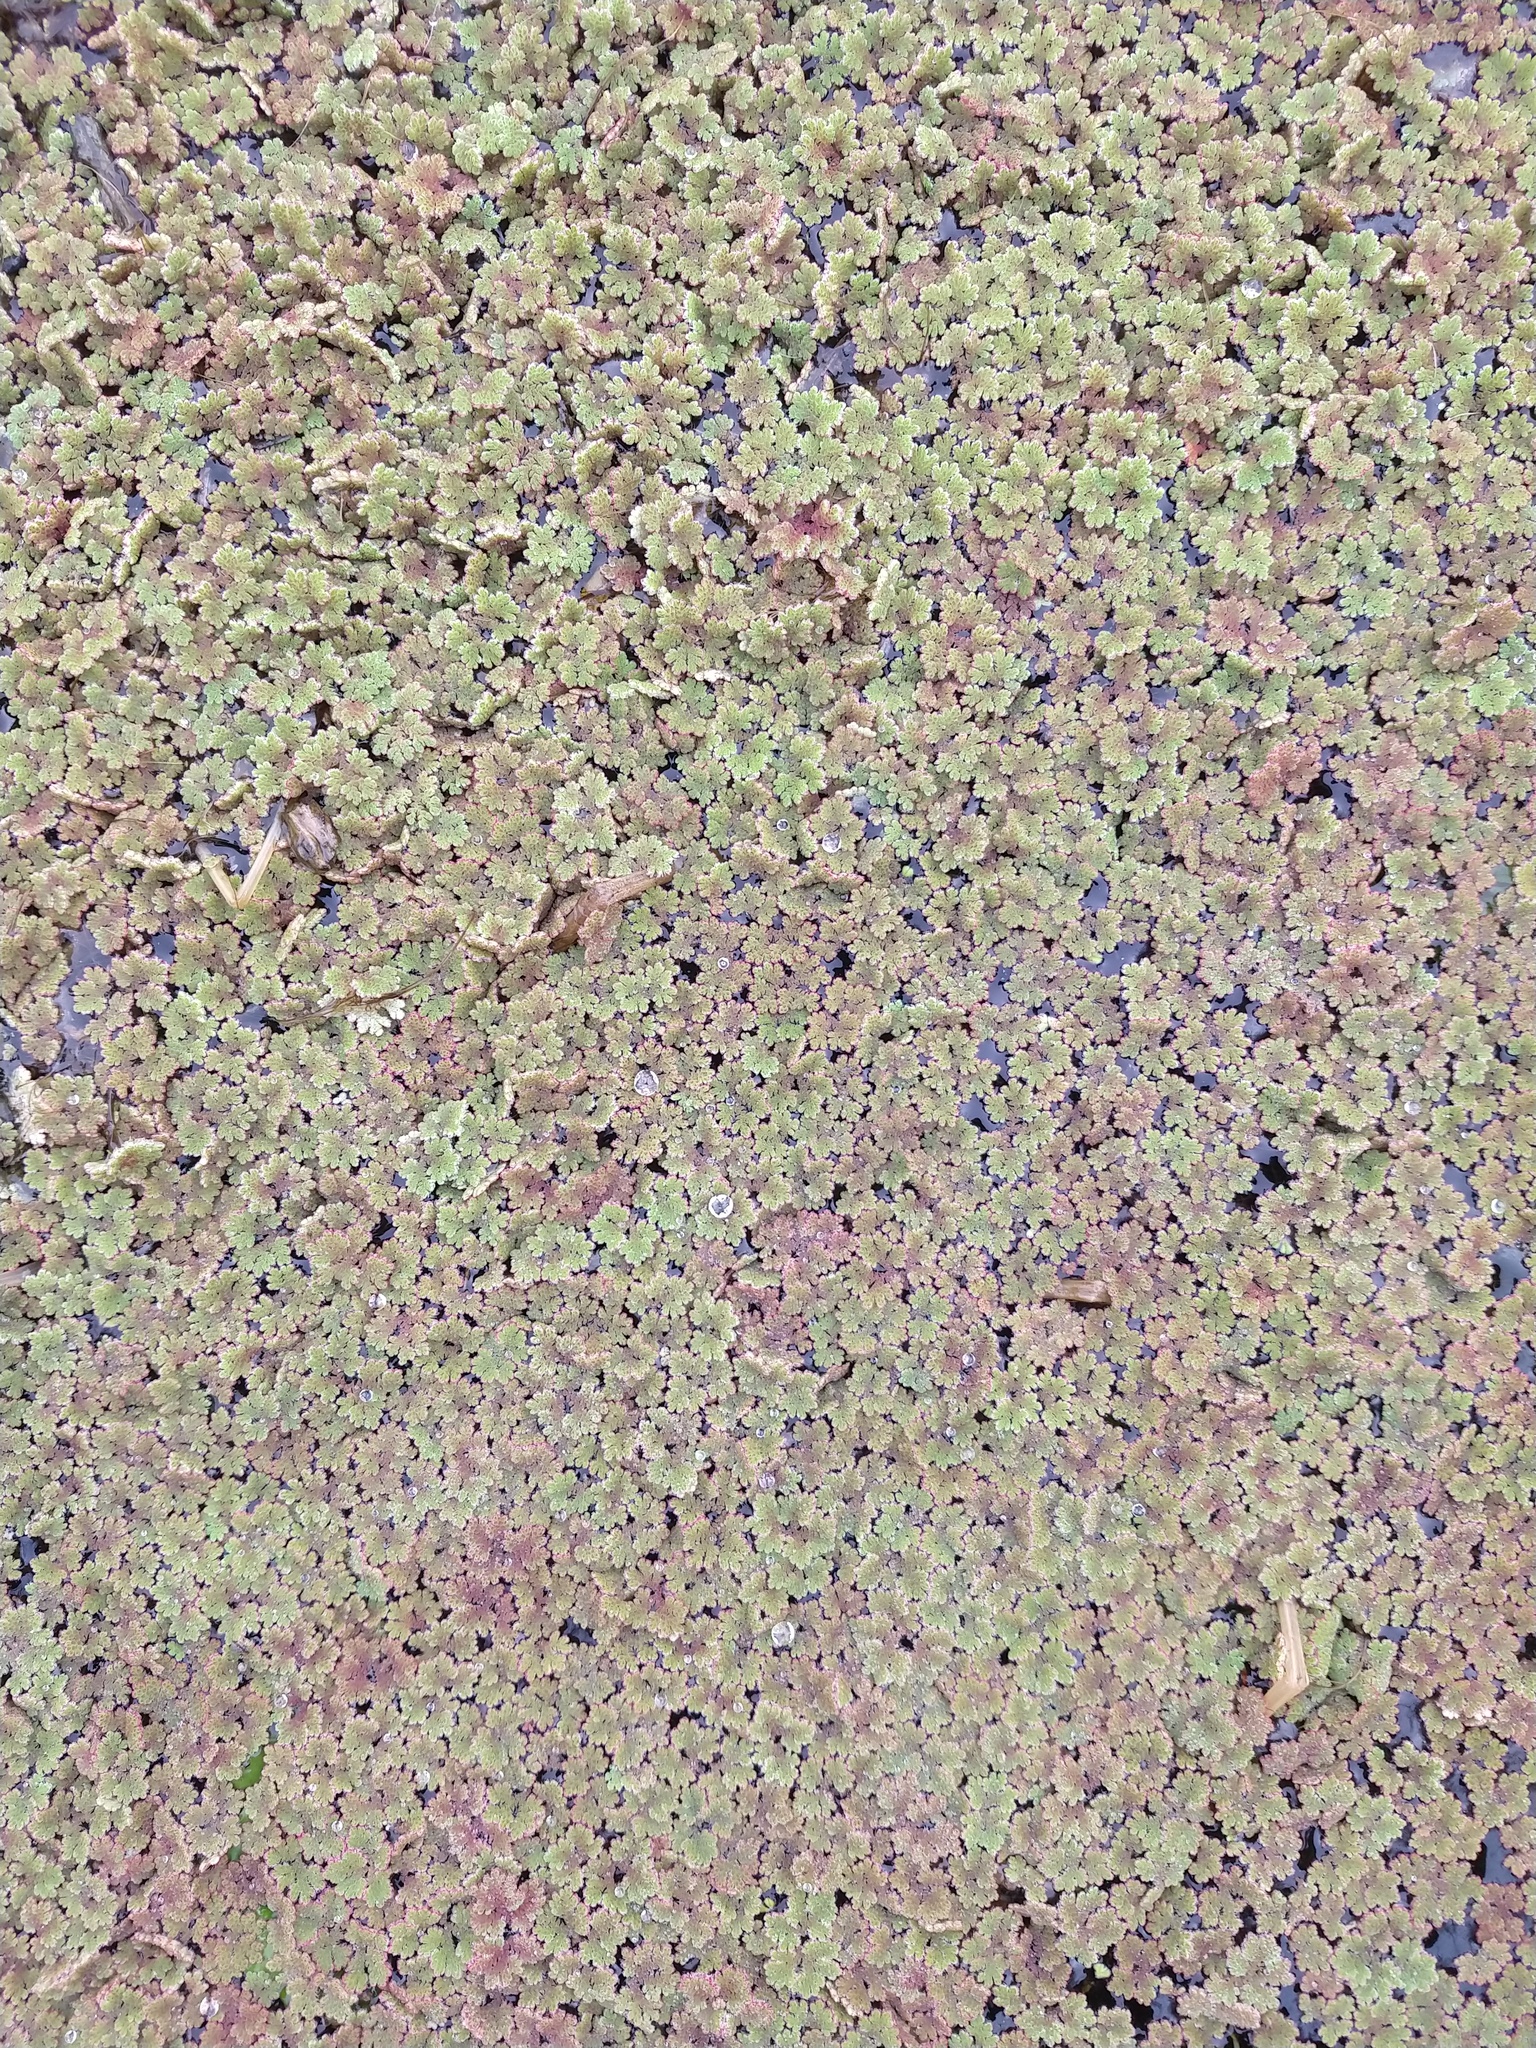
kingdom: Plantae
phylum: Tracheophyta
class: Polypodiopsida
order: Salviniales
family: Salviniaceae
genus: Azolla
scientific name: Azolla filiculoides
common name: Water fern
